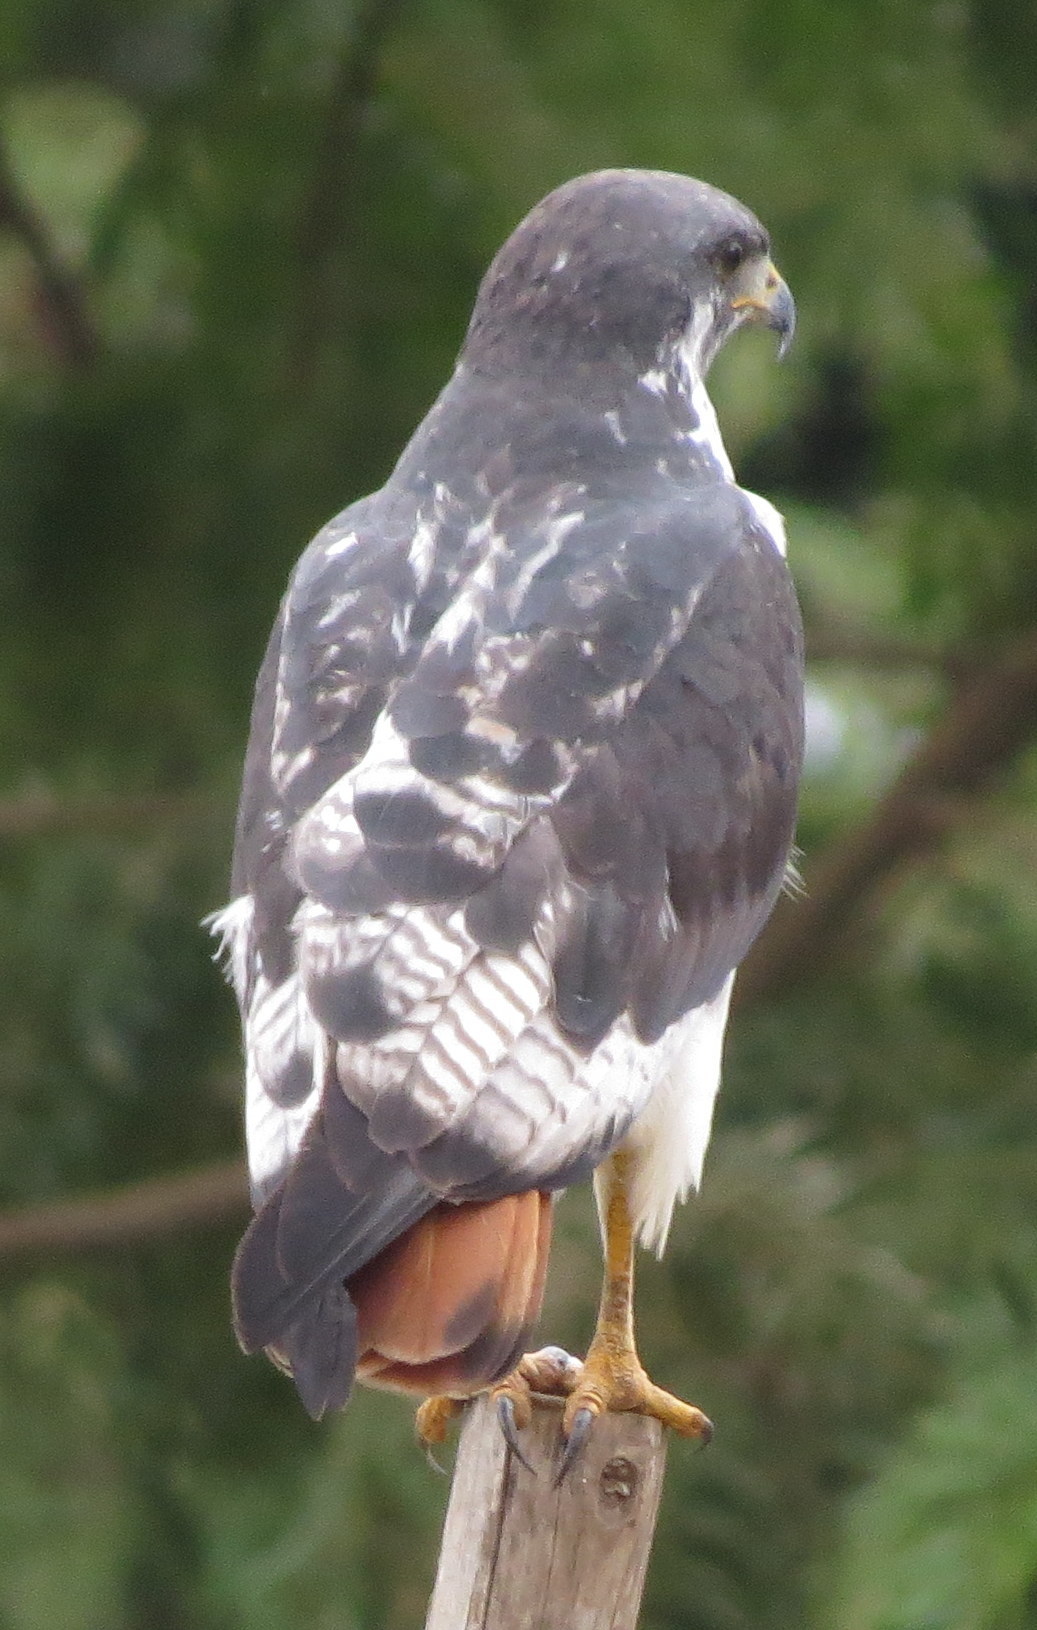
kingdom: Animalia
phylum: Chordata
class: Aves
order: Accipitriformes
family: Accipitridae
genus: Buteo
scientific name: Buteo augur
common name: Augur buzzard
